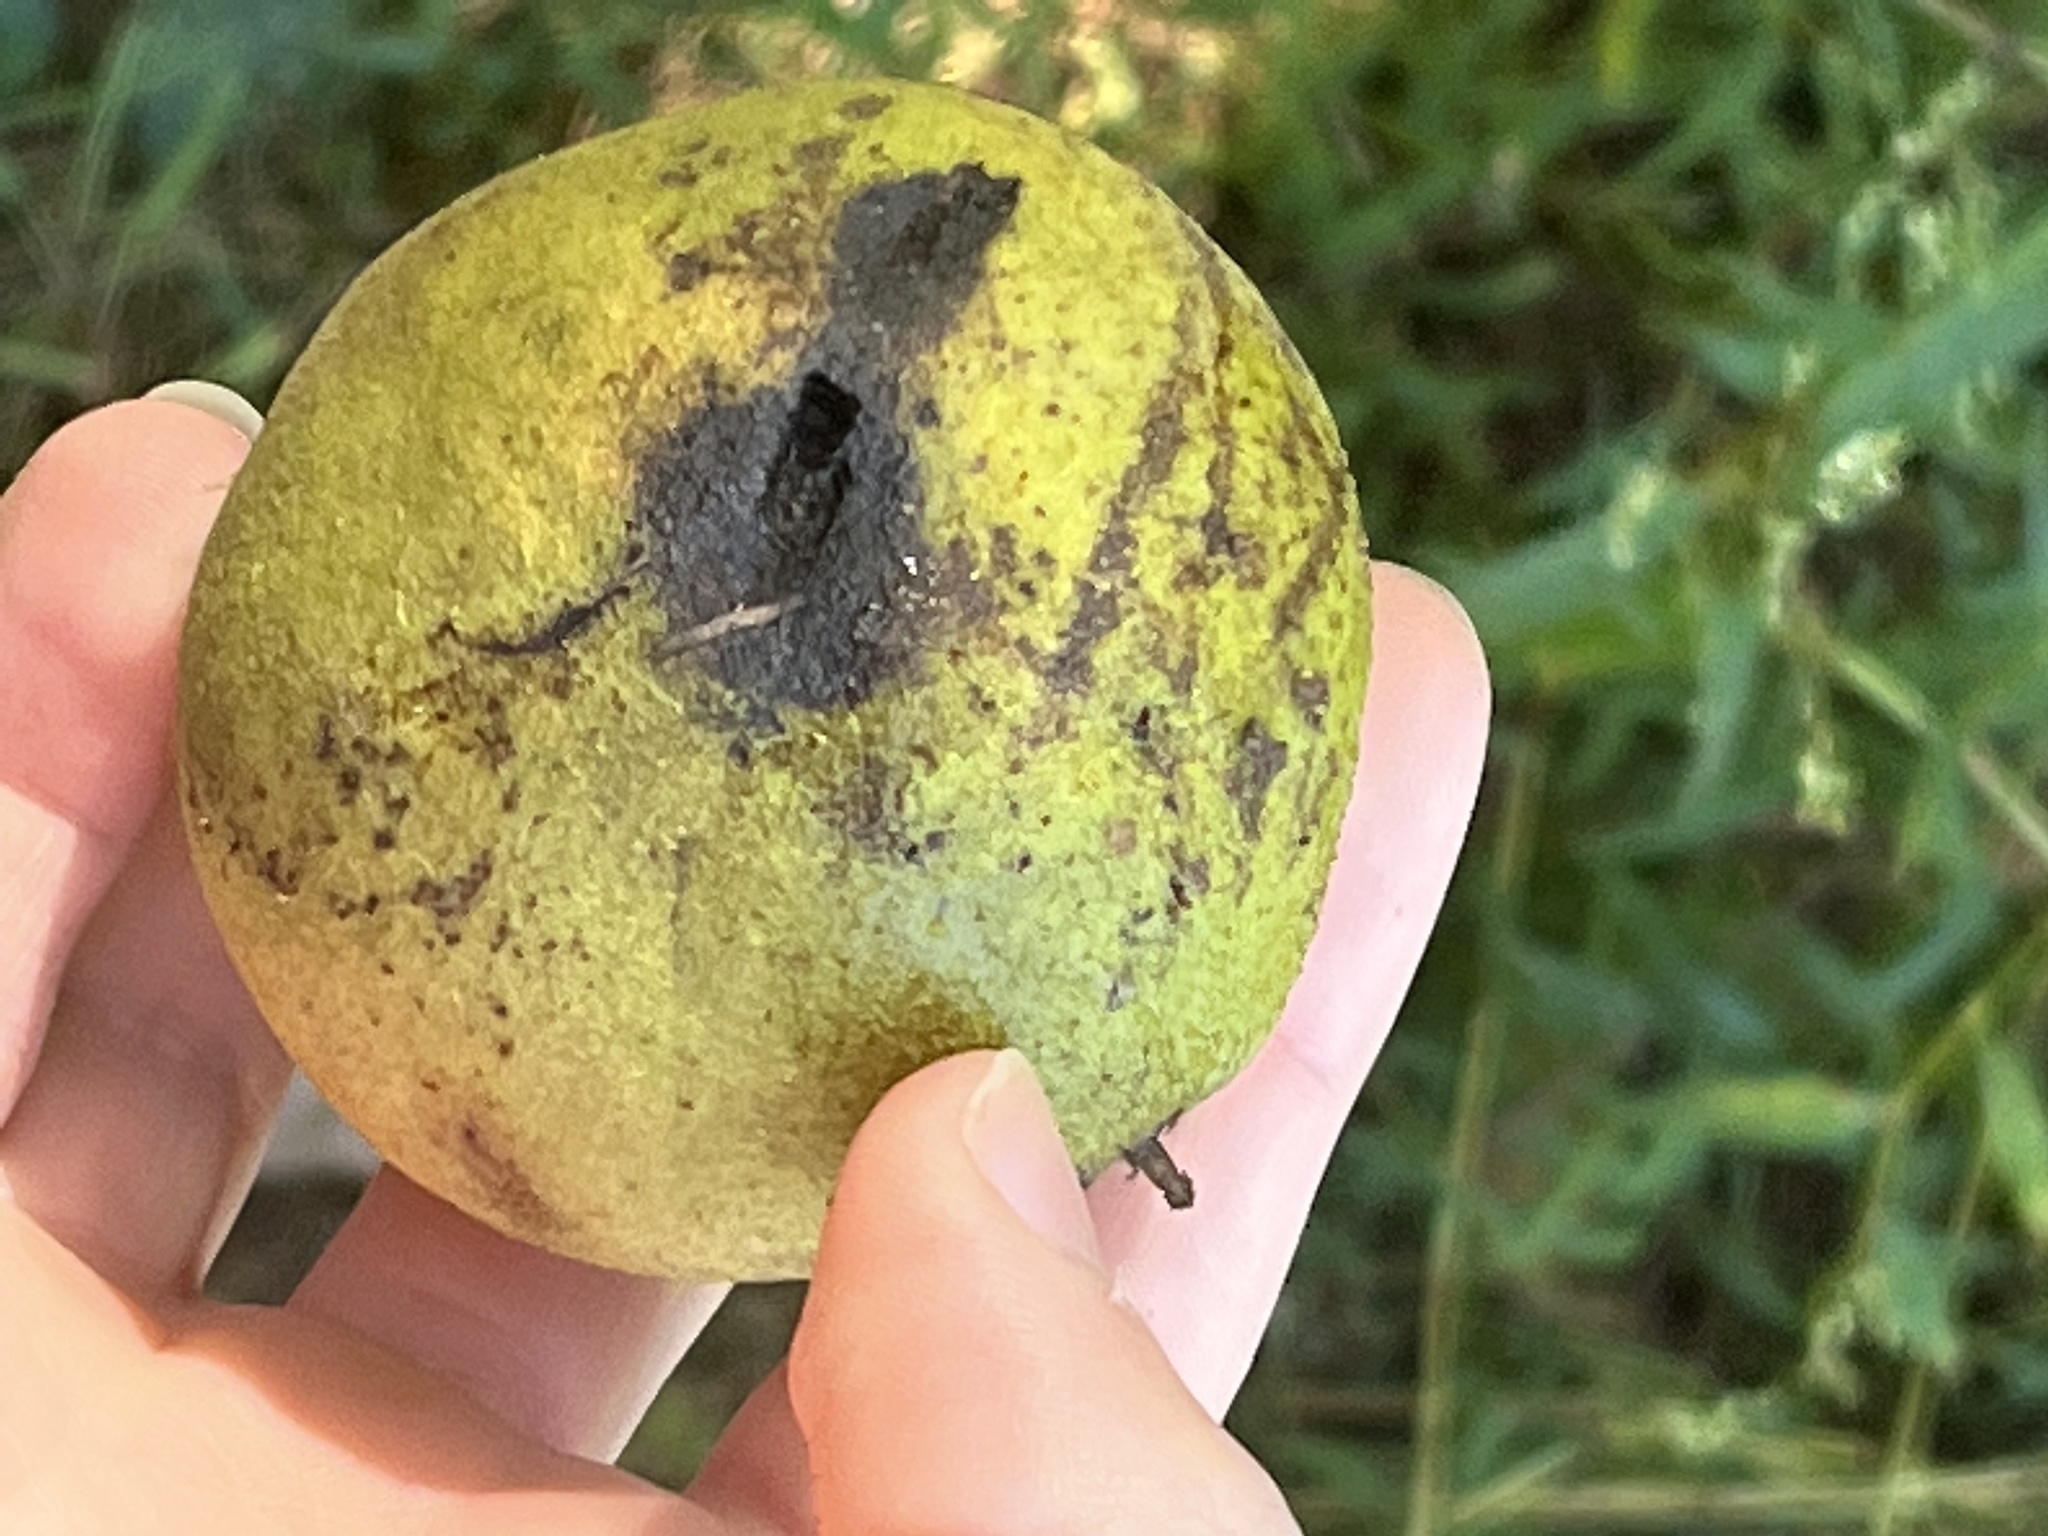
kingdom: Plantae
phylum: Tracheophyta
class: Magnoliopsida
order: Fagales
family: Juglandaceae
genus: Juglans
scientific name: Juglans nigra
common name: Black walnut
